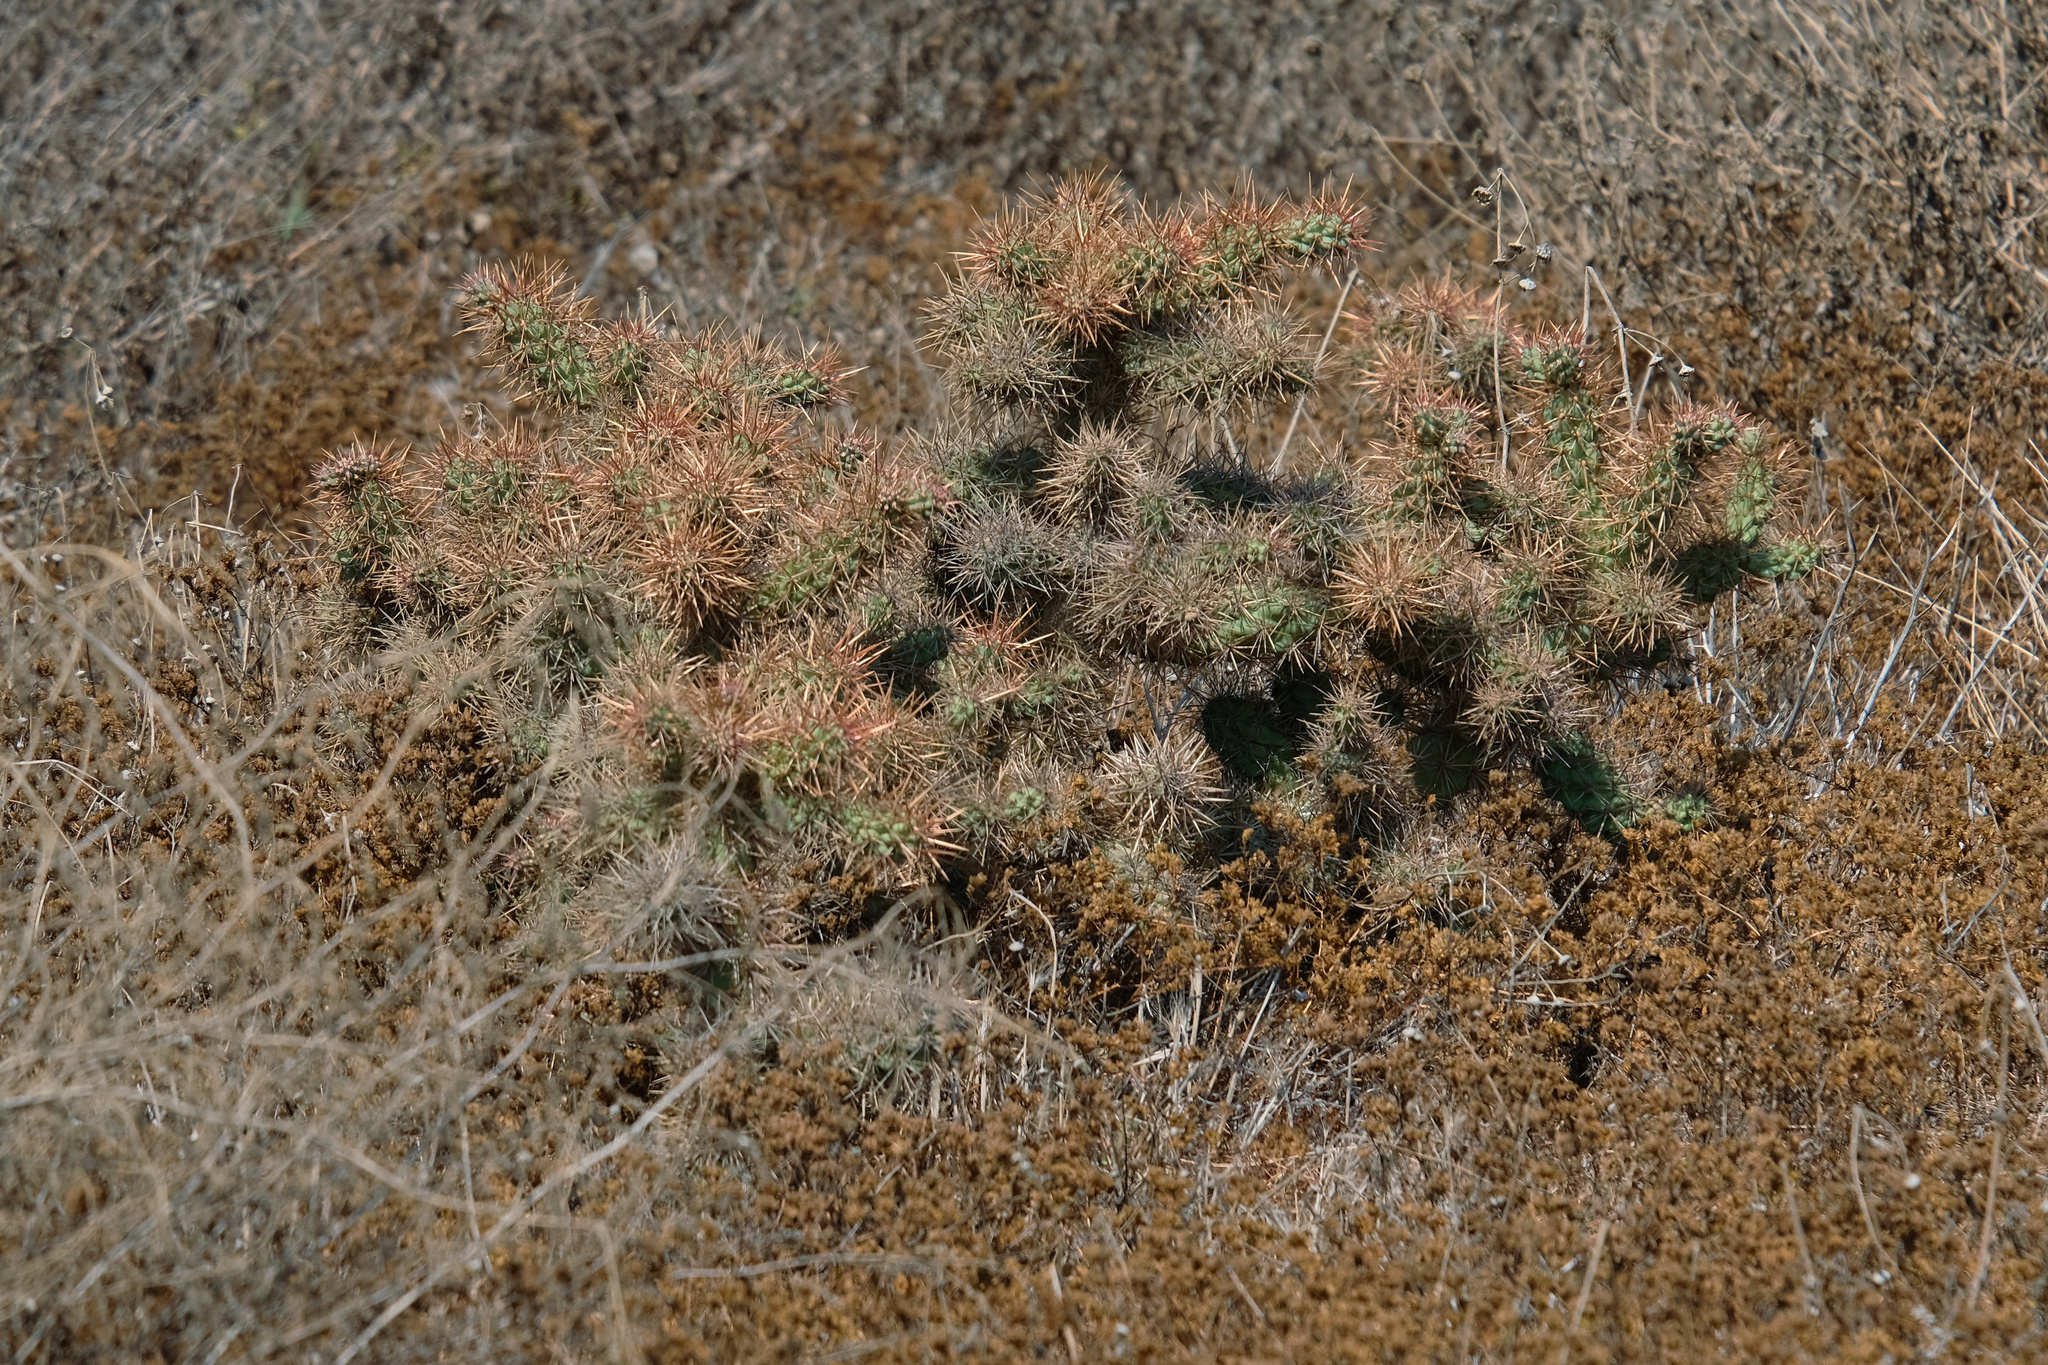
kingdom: Plantae
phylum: Tracheophyta
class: Magnoliopsida
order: Caryophyllales
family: Cactaceae
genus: Cylindropuntia
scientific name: Cylindropuntia prolifera
